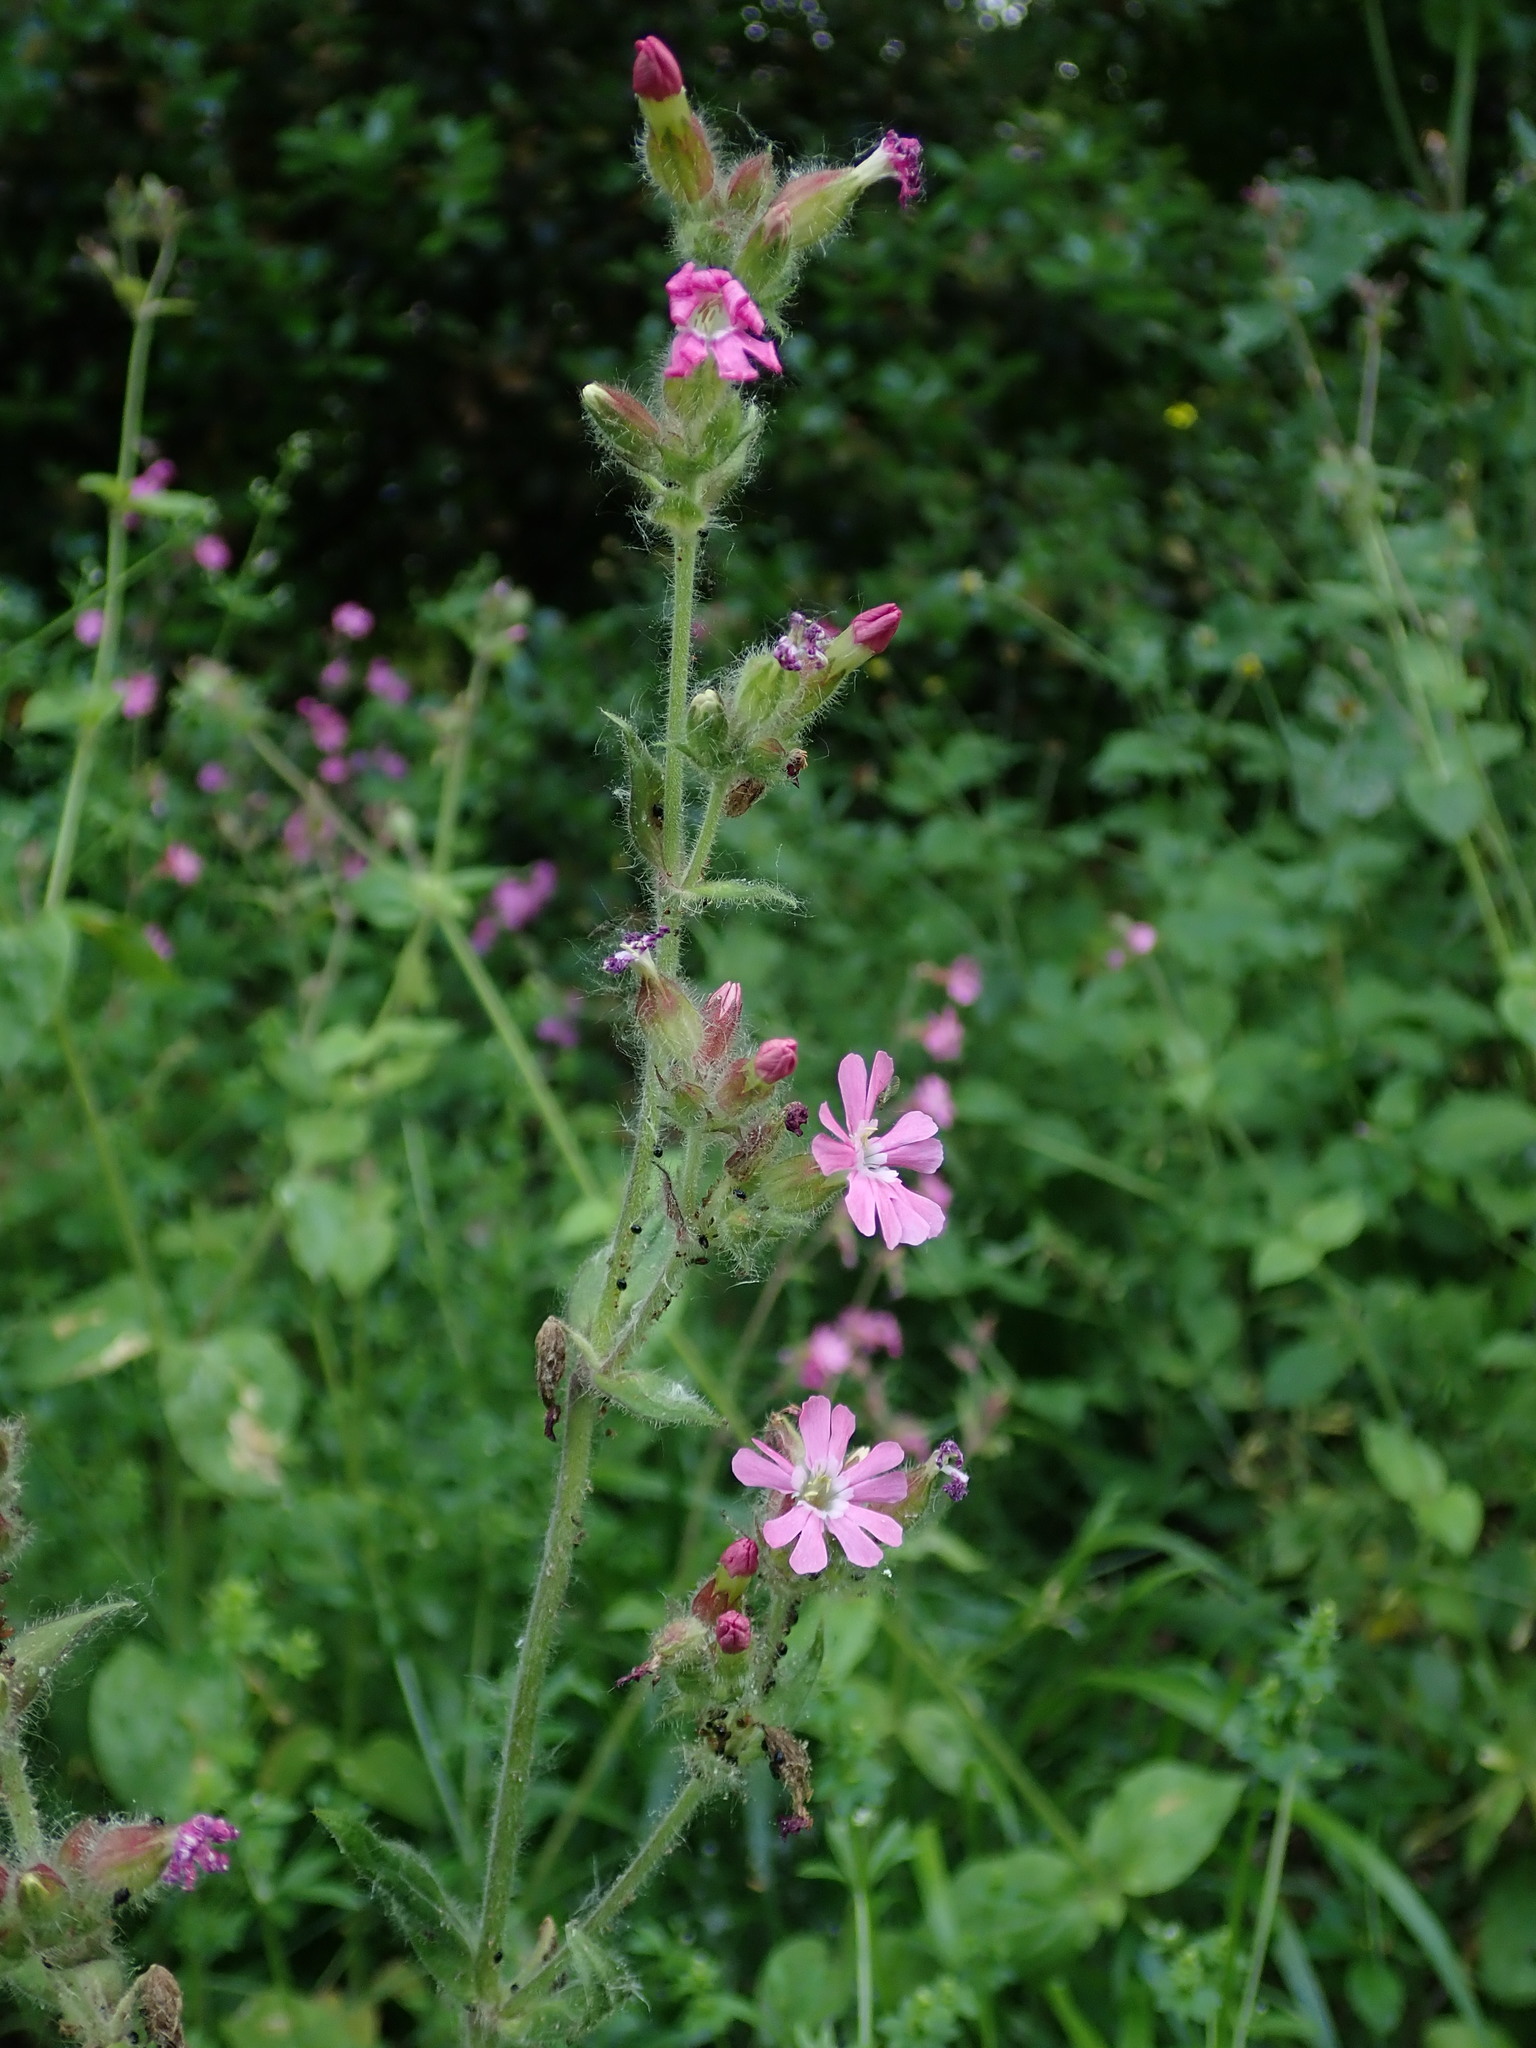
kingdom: Plantae
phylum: Tracheophyta
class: Magnoliopsida
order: Caryophyllales
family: Caryophyllaceae
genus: Silene
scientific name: Silene dioica
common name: Red campion
